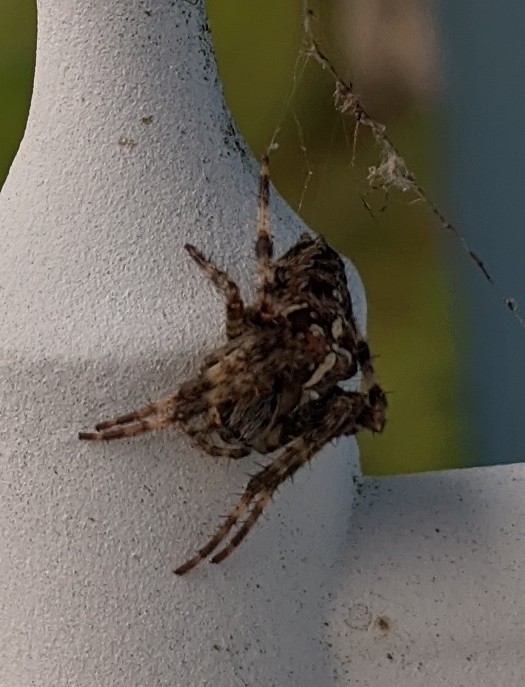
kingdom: Animalia
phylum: Arthropoda
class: Arachnida
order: Araneae
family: Araneidae
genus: Araneus
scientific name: Araneus diadematus
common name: Cross orbweaver
